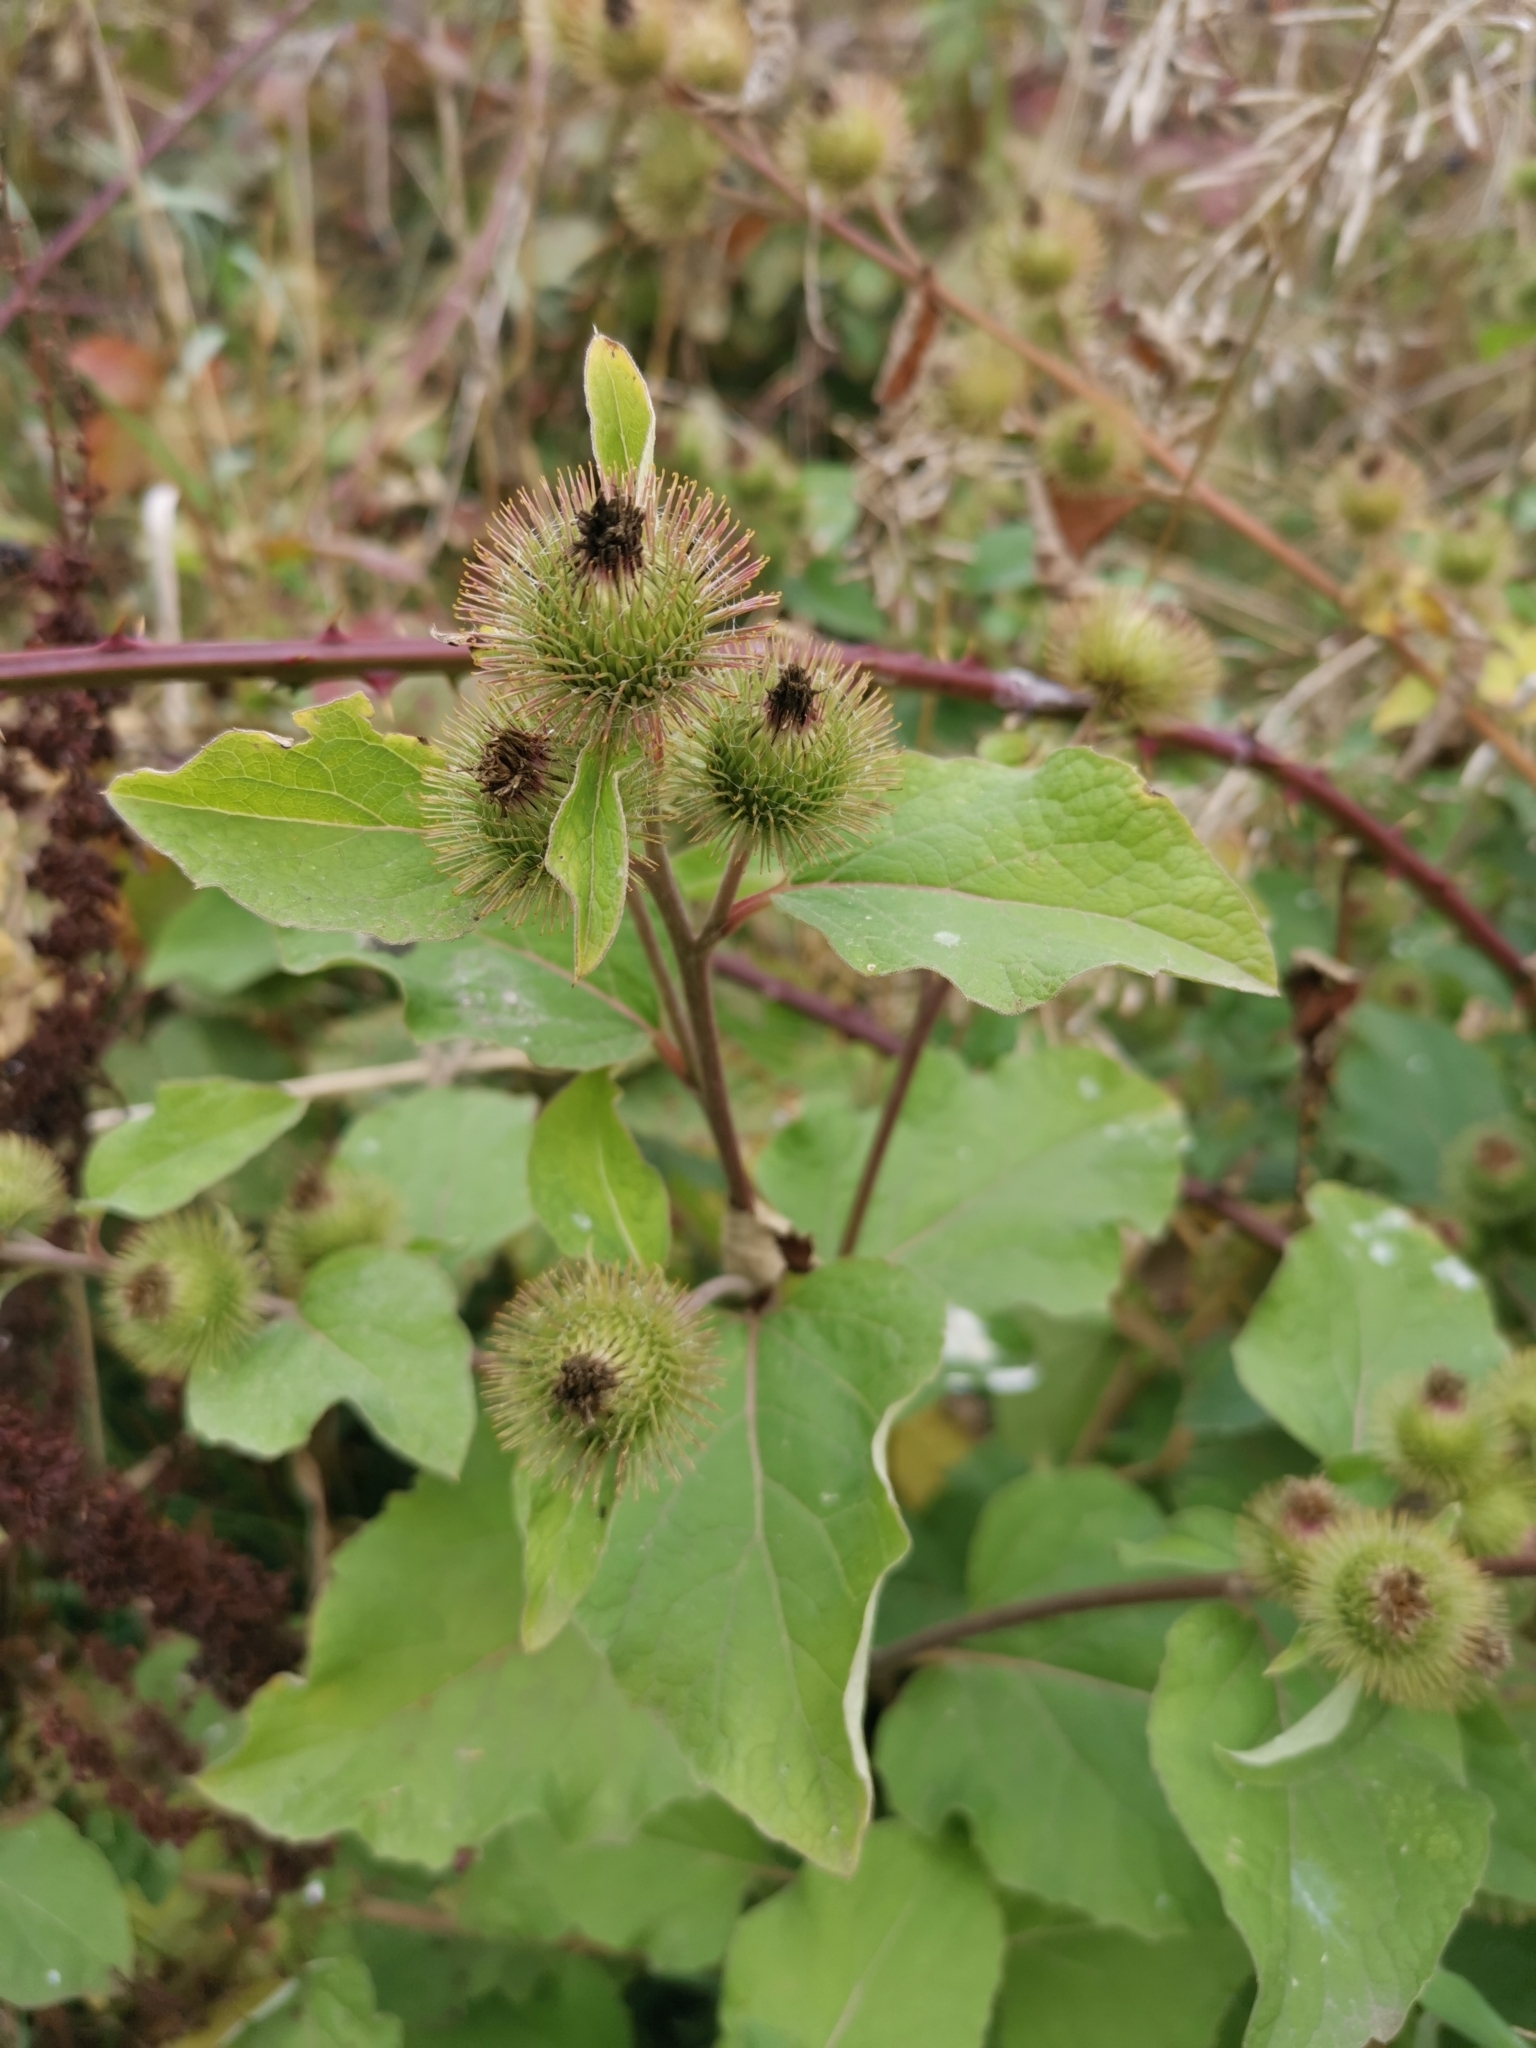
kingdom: Plantae
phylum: Tracheophyta
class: Magnoliopsida
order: Asterales
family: Asteraceae
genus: Arctium
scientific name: Arctium lappa
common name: Greater burdock
